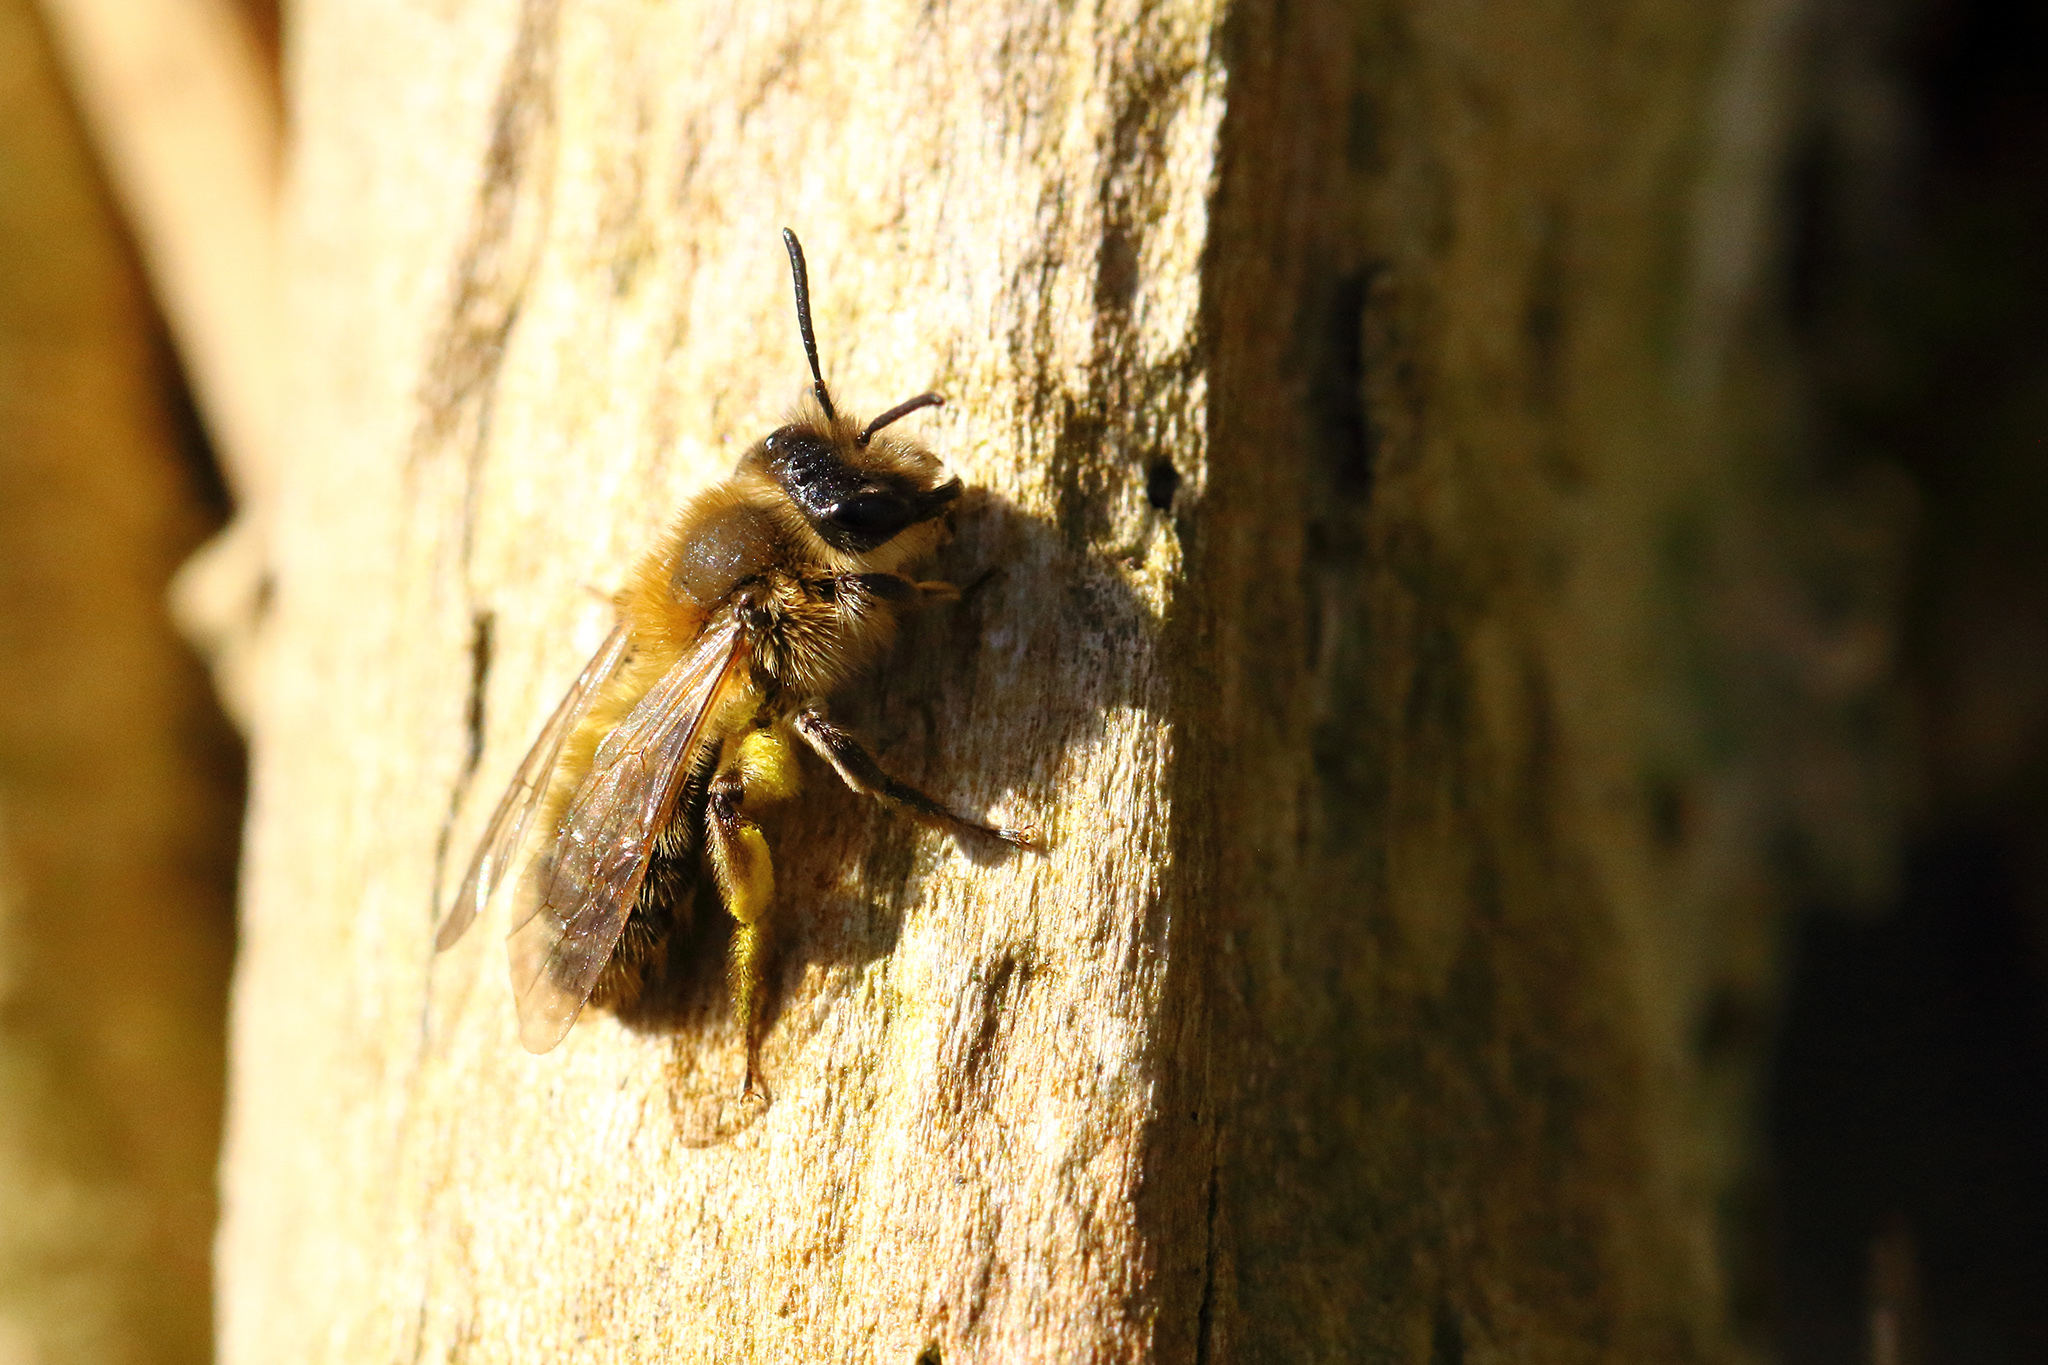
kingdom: Animalia
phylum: Arthropoda
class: Insecta
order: Hymenoptera
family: Andrenidae
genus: Andrena
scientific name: Andrena praecox
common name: Small sallow mining bee
